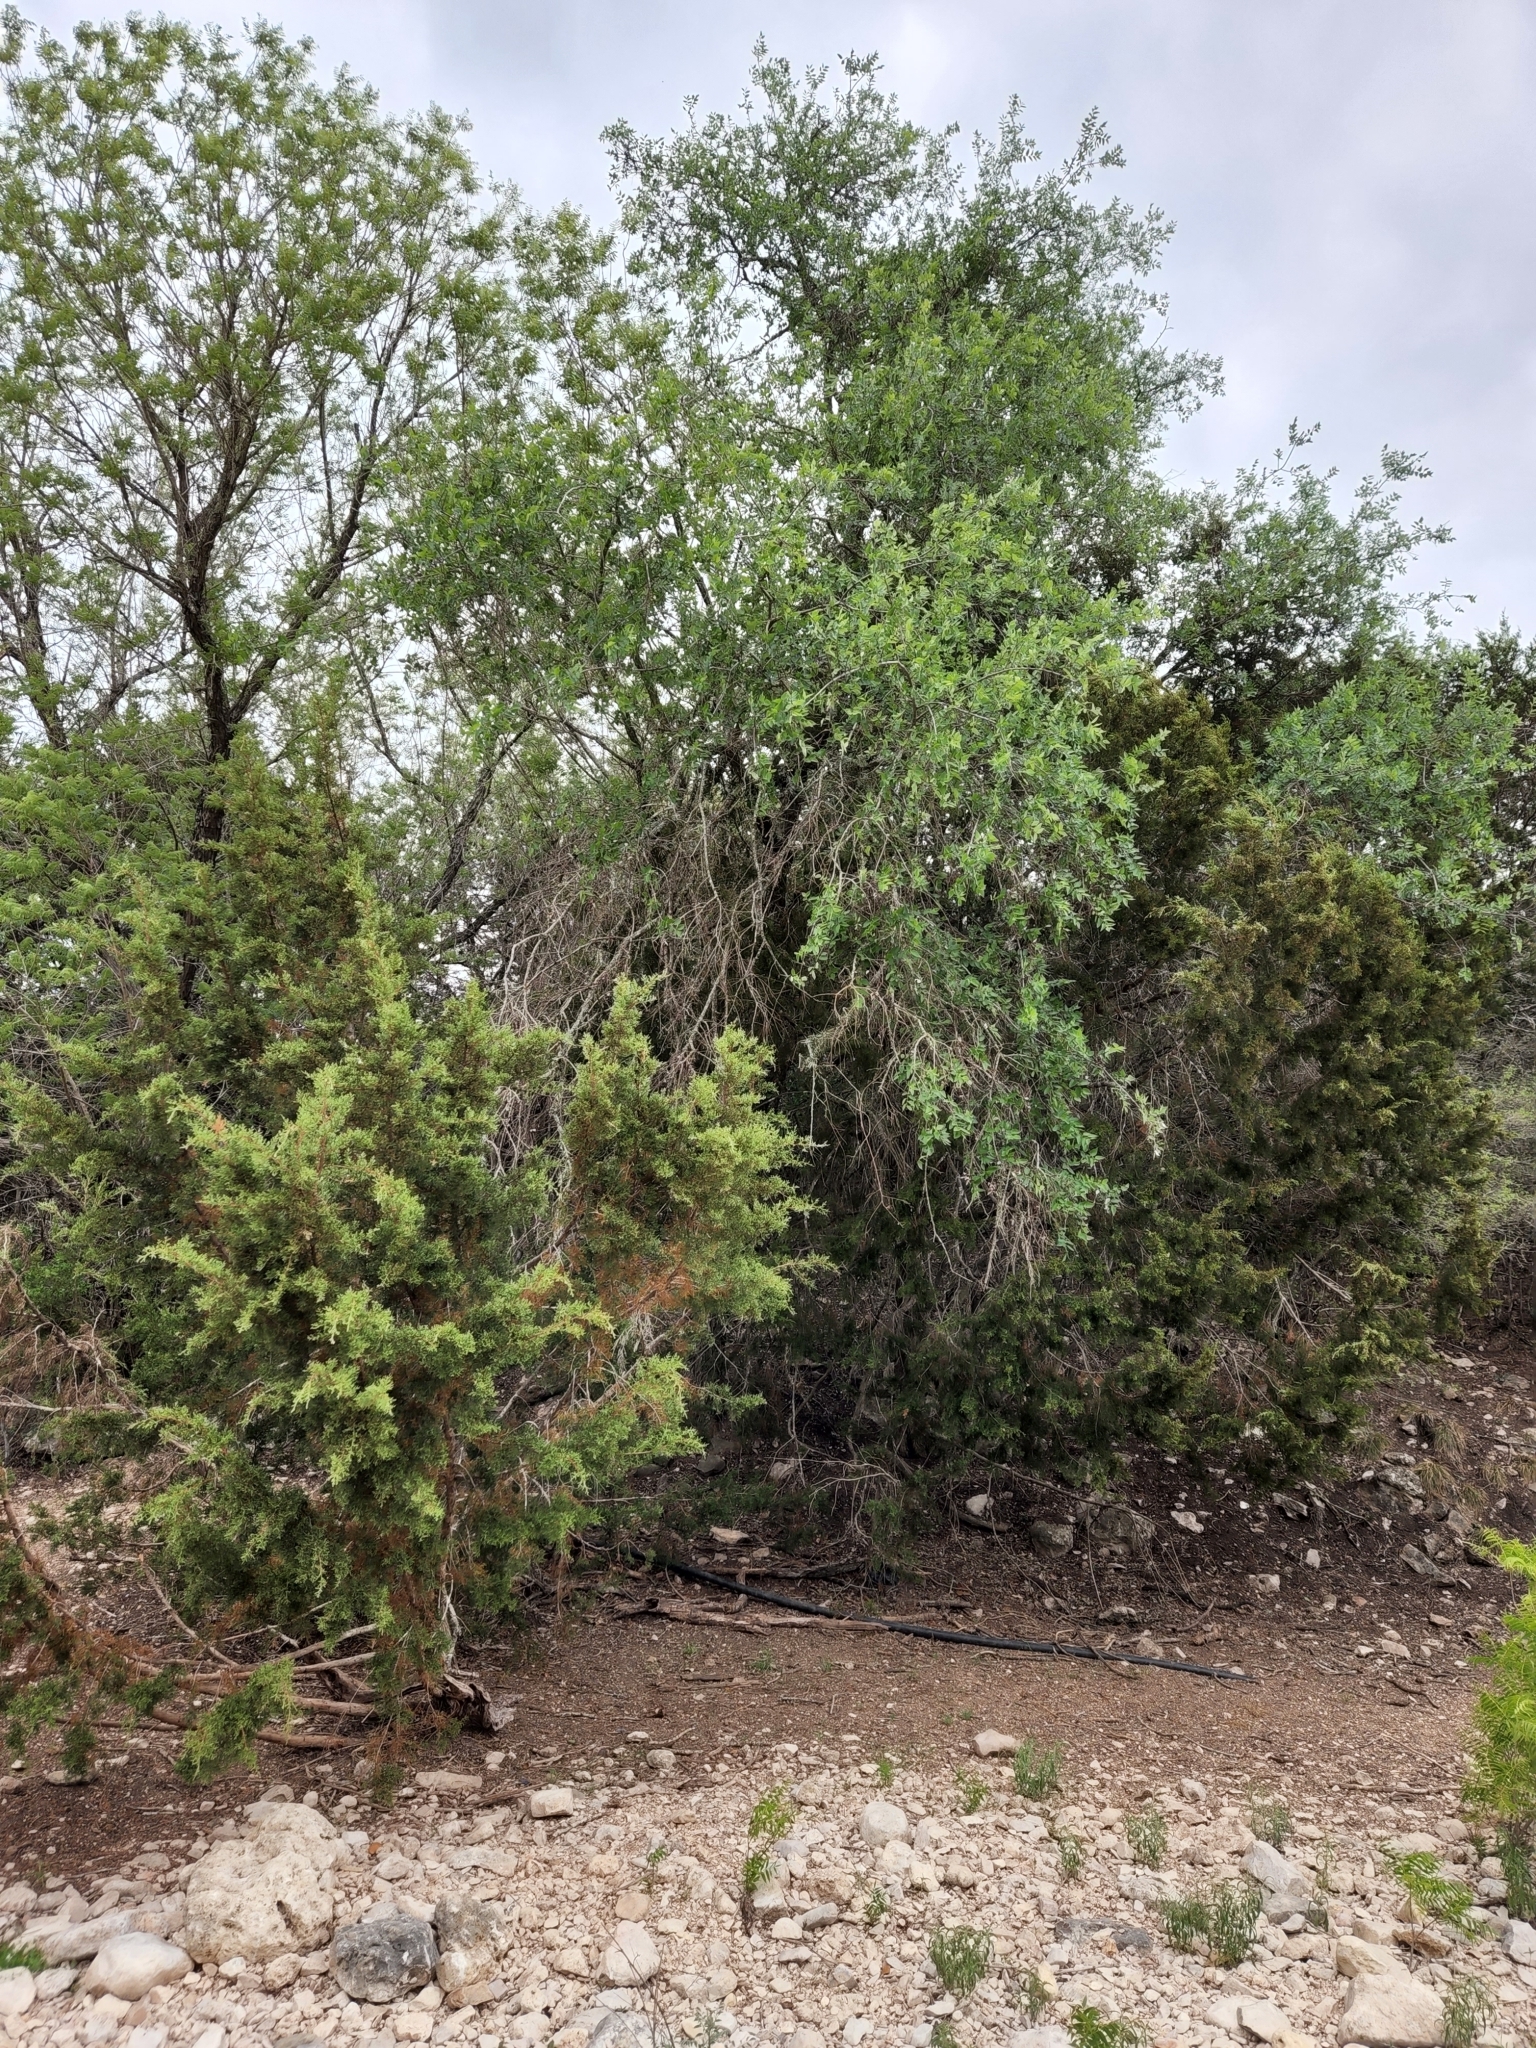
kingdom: Plantae
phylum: Tracheophyta
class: Magnoliopsida
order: Rosales
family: Cannabaceae
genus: Celtis
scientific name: Celtis reticulata
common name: Netleaf hackberry
